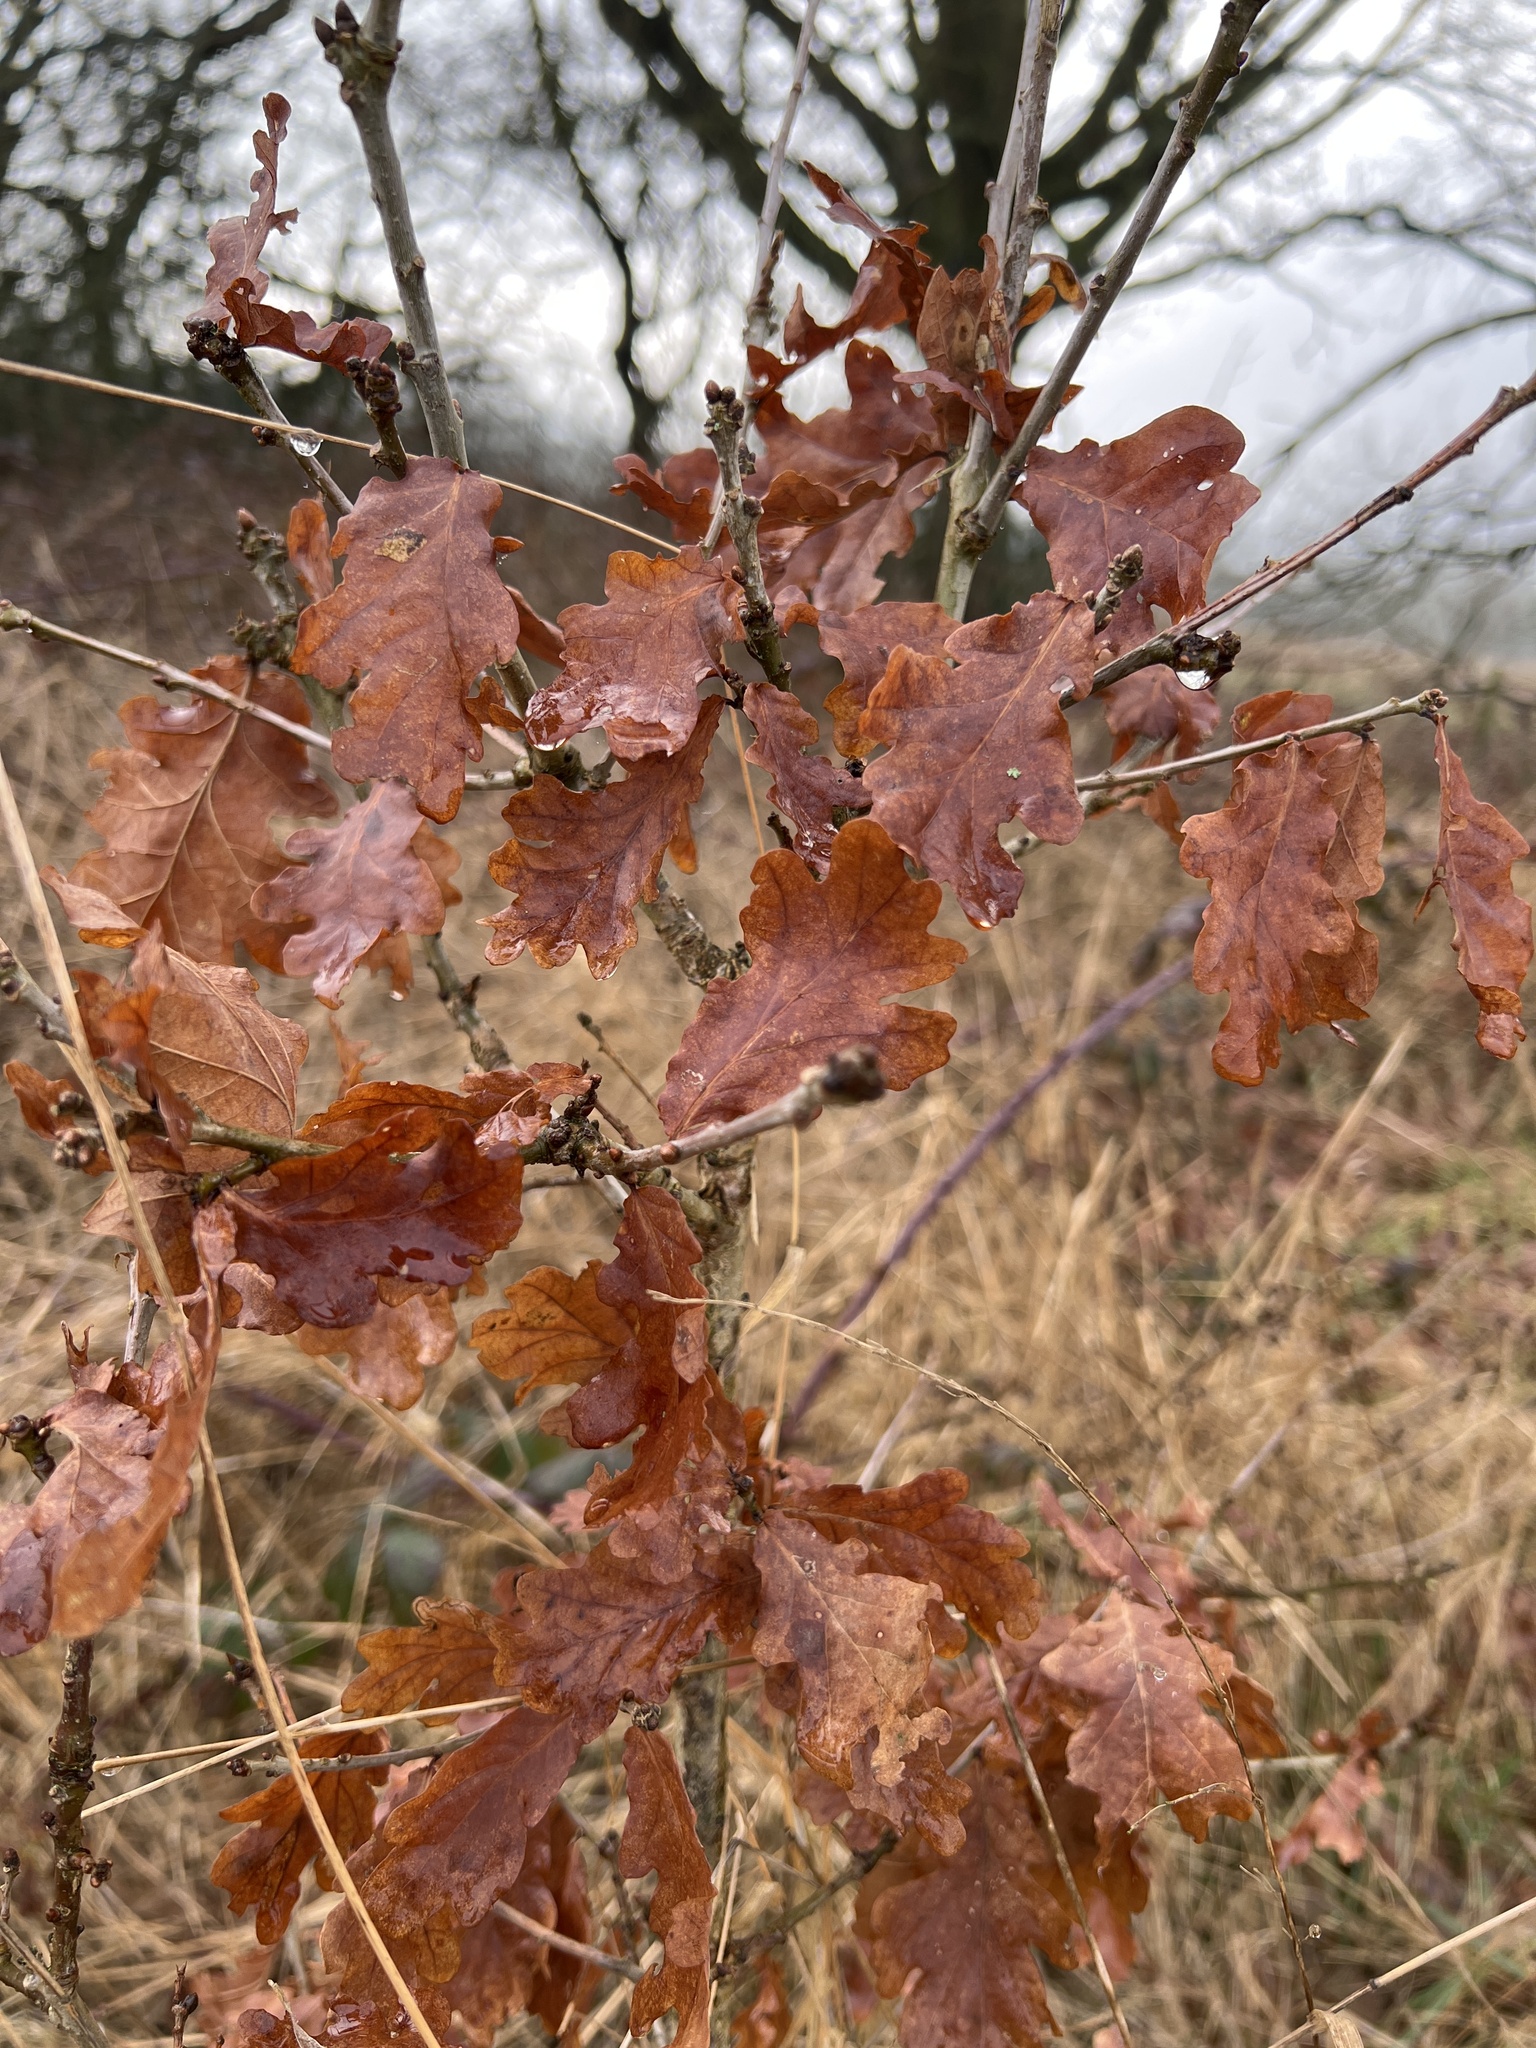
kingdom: Plantae
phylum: Tracheophyta
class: Magnoliopsida
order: Fagales
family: Fagaceae
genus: Quercus
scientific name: Quercus robur
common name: Pedunculate oak
